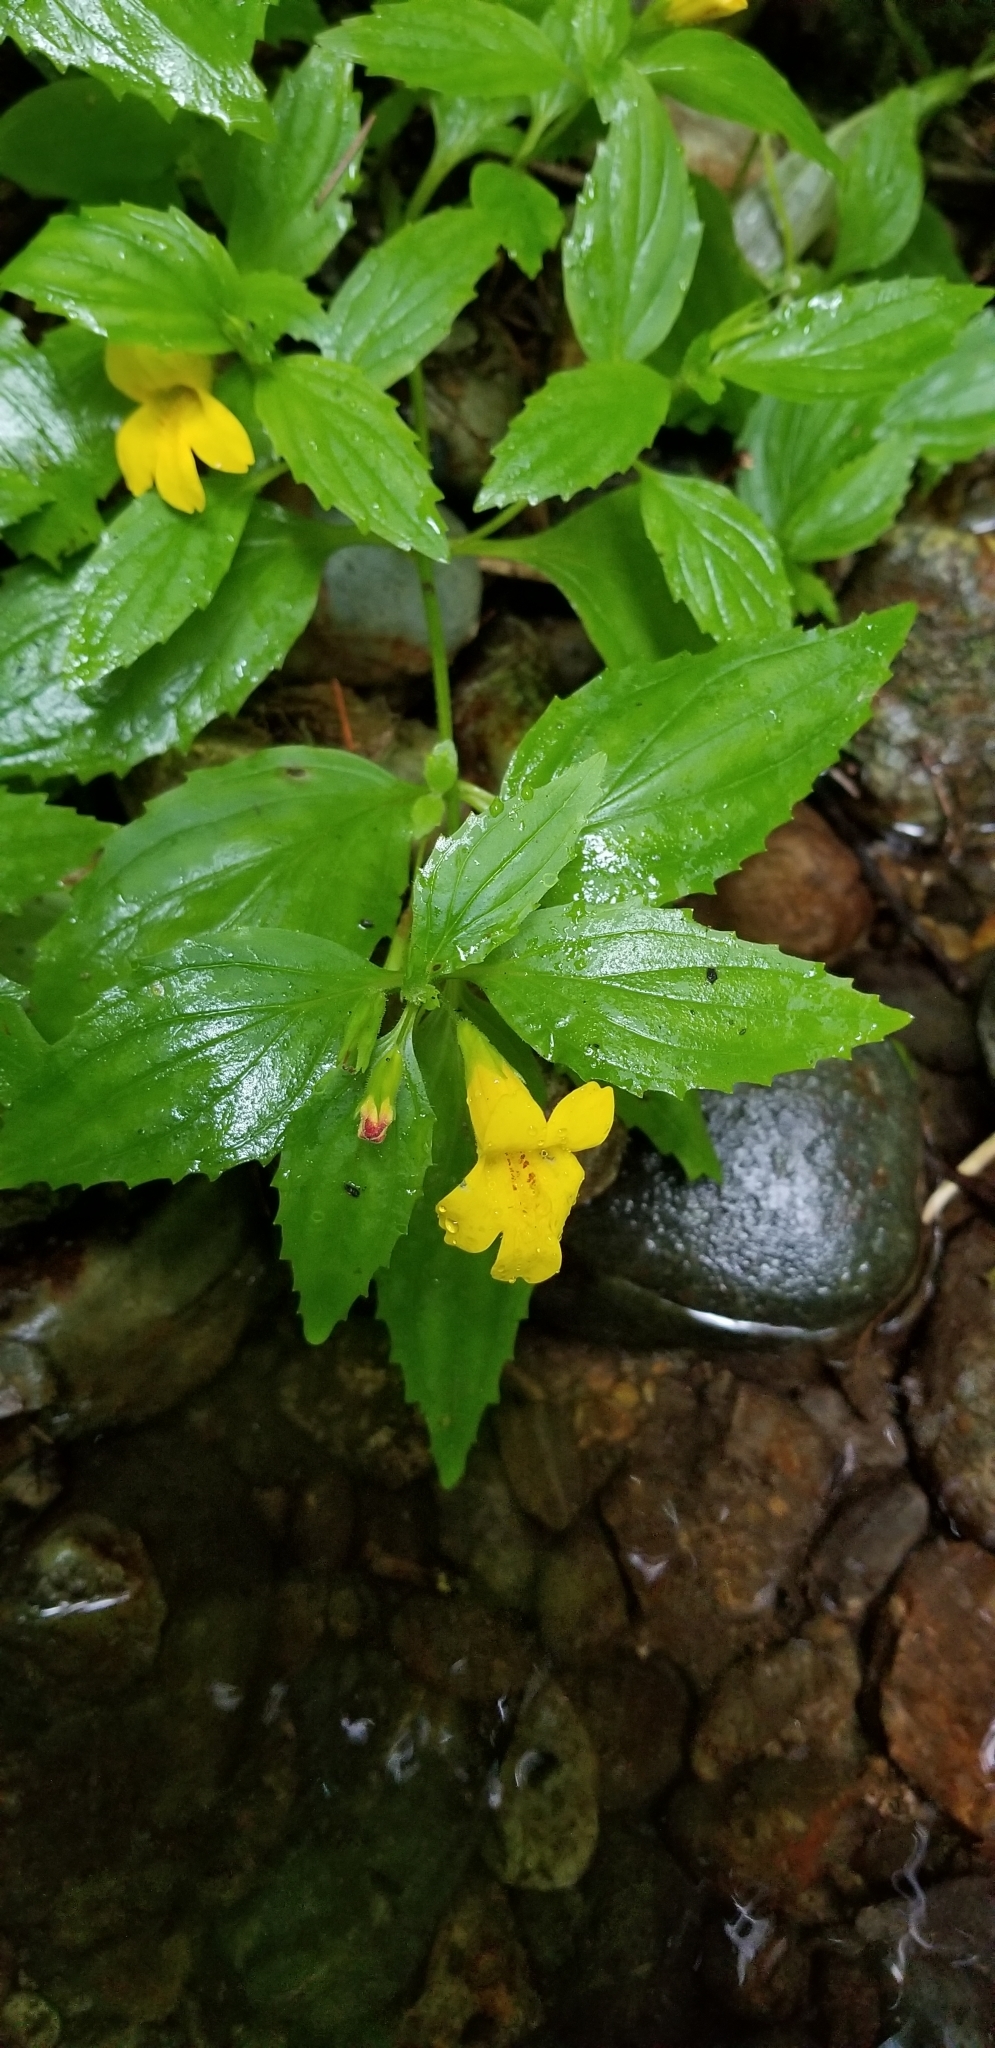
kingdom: Plantae
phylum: Tracheophyta
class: Magnoliopsida
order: Lamiales
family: Phrymaceae
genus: Erythranthe
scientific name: Erythranthe dentata
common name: Coastal monkeyflower
